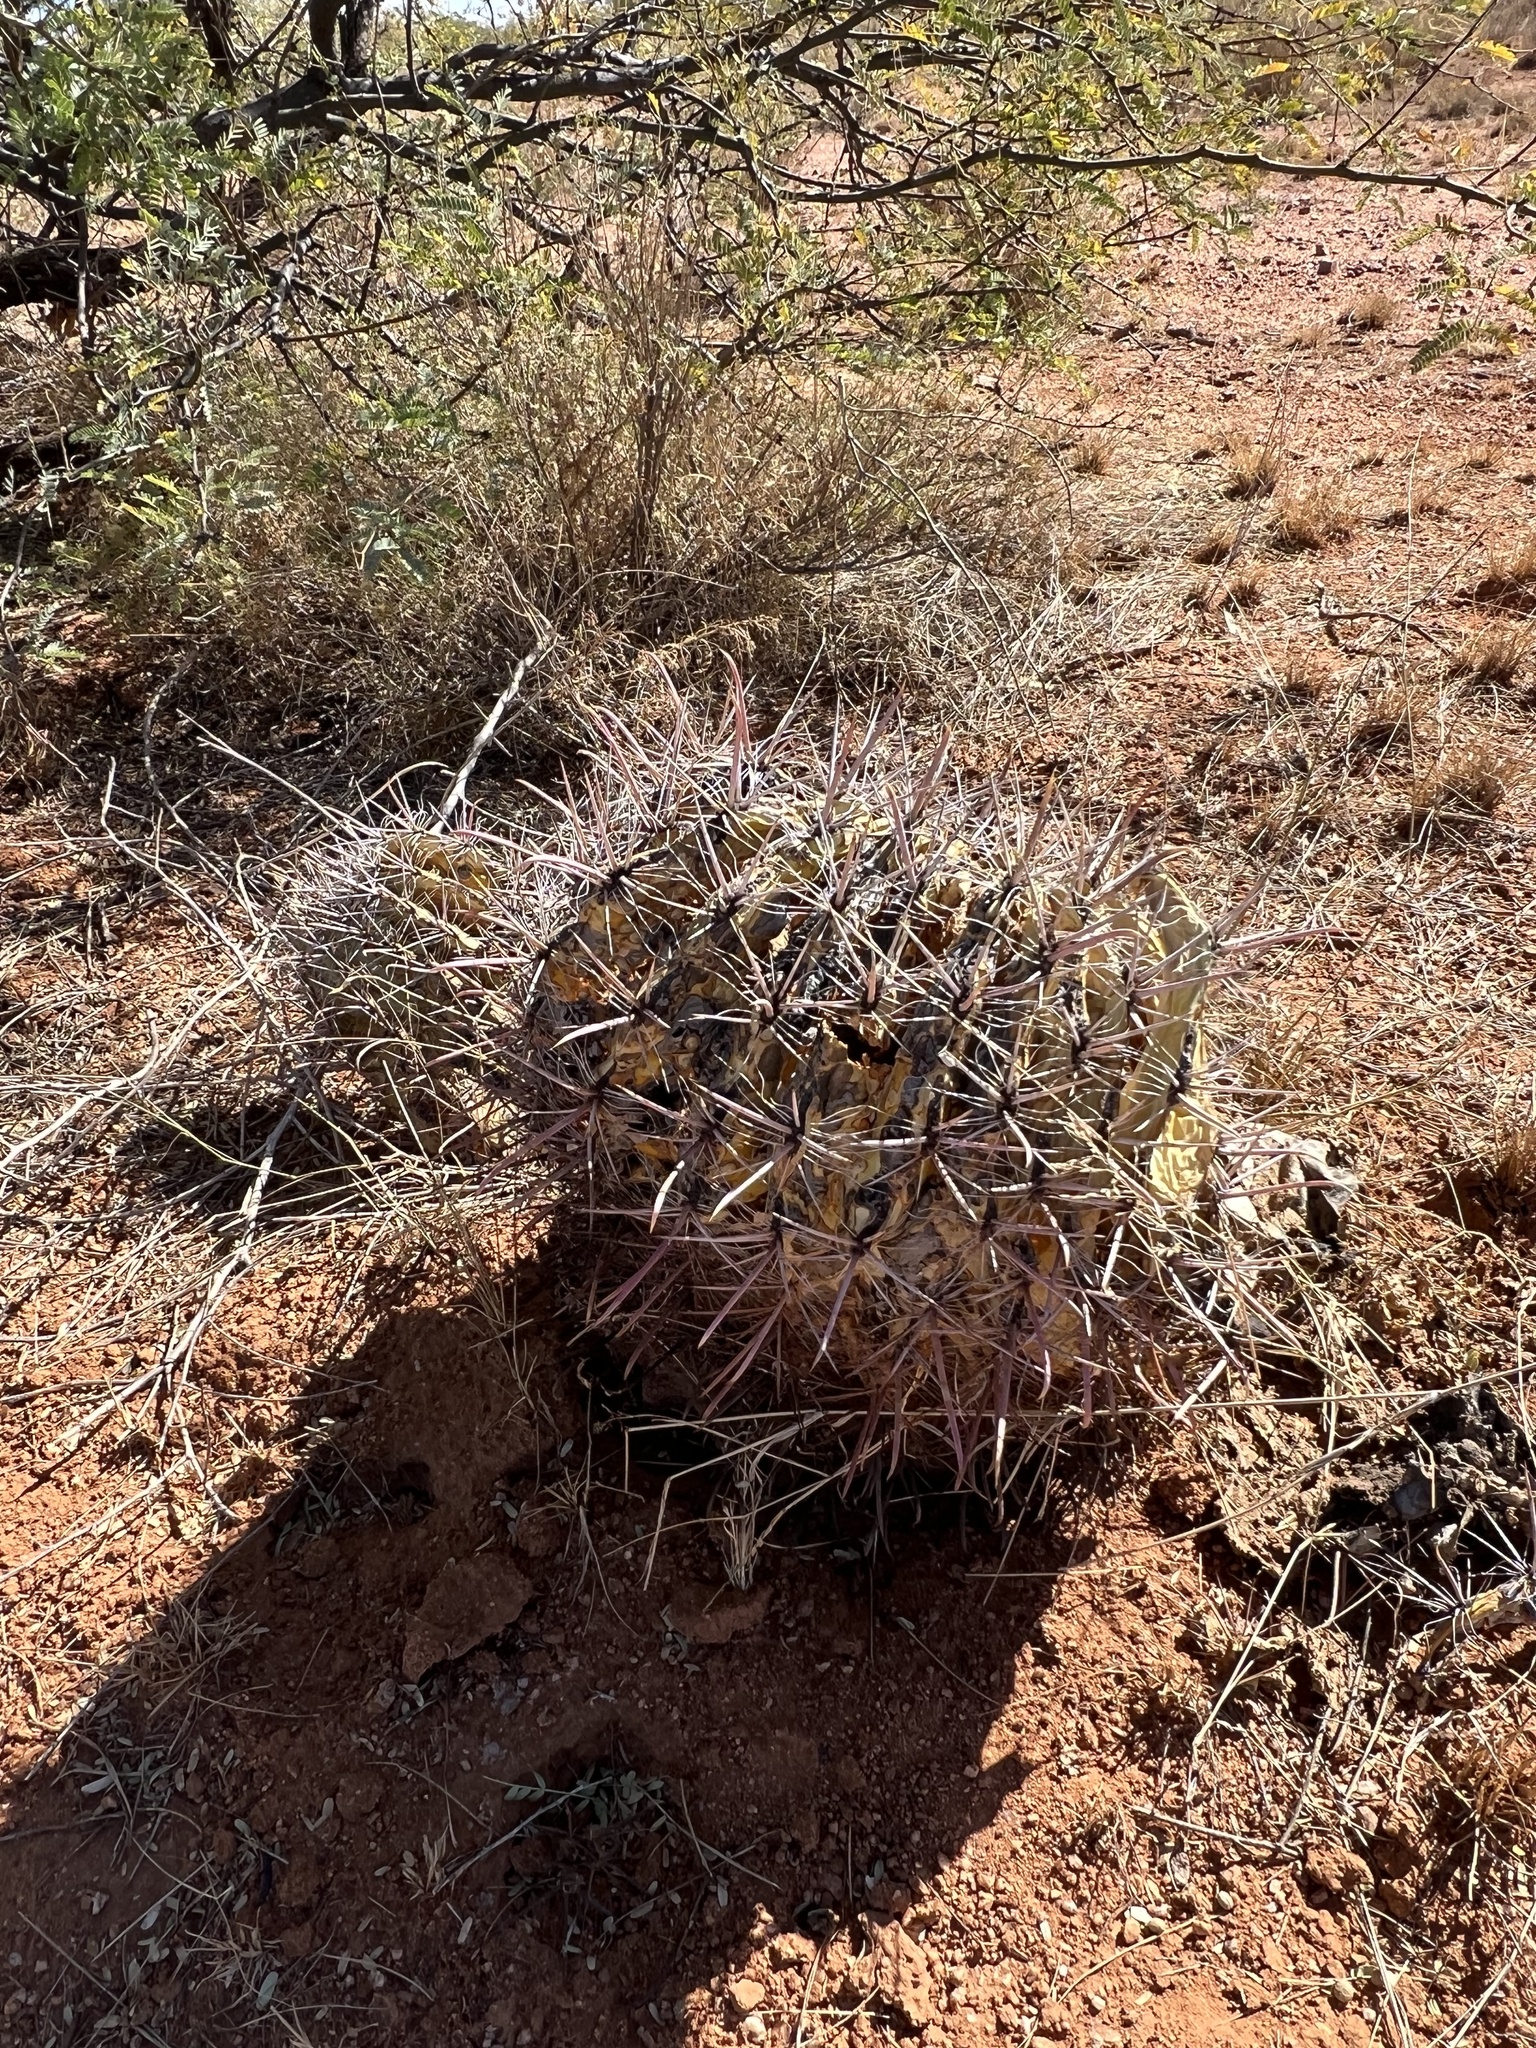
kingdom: Plantae
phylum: Tracheophyta
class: Magnoliopsida
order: Caryophyllales
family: Cactaceae
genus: Ferocactus
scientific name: Ferocactus wislizeni
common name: Candy barrel cactus
